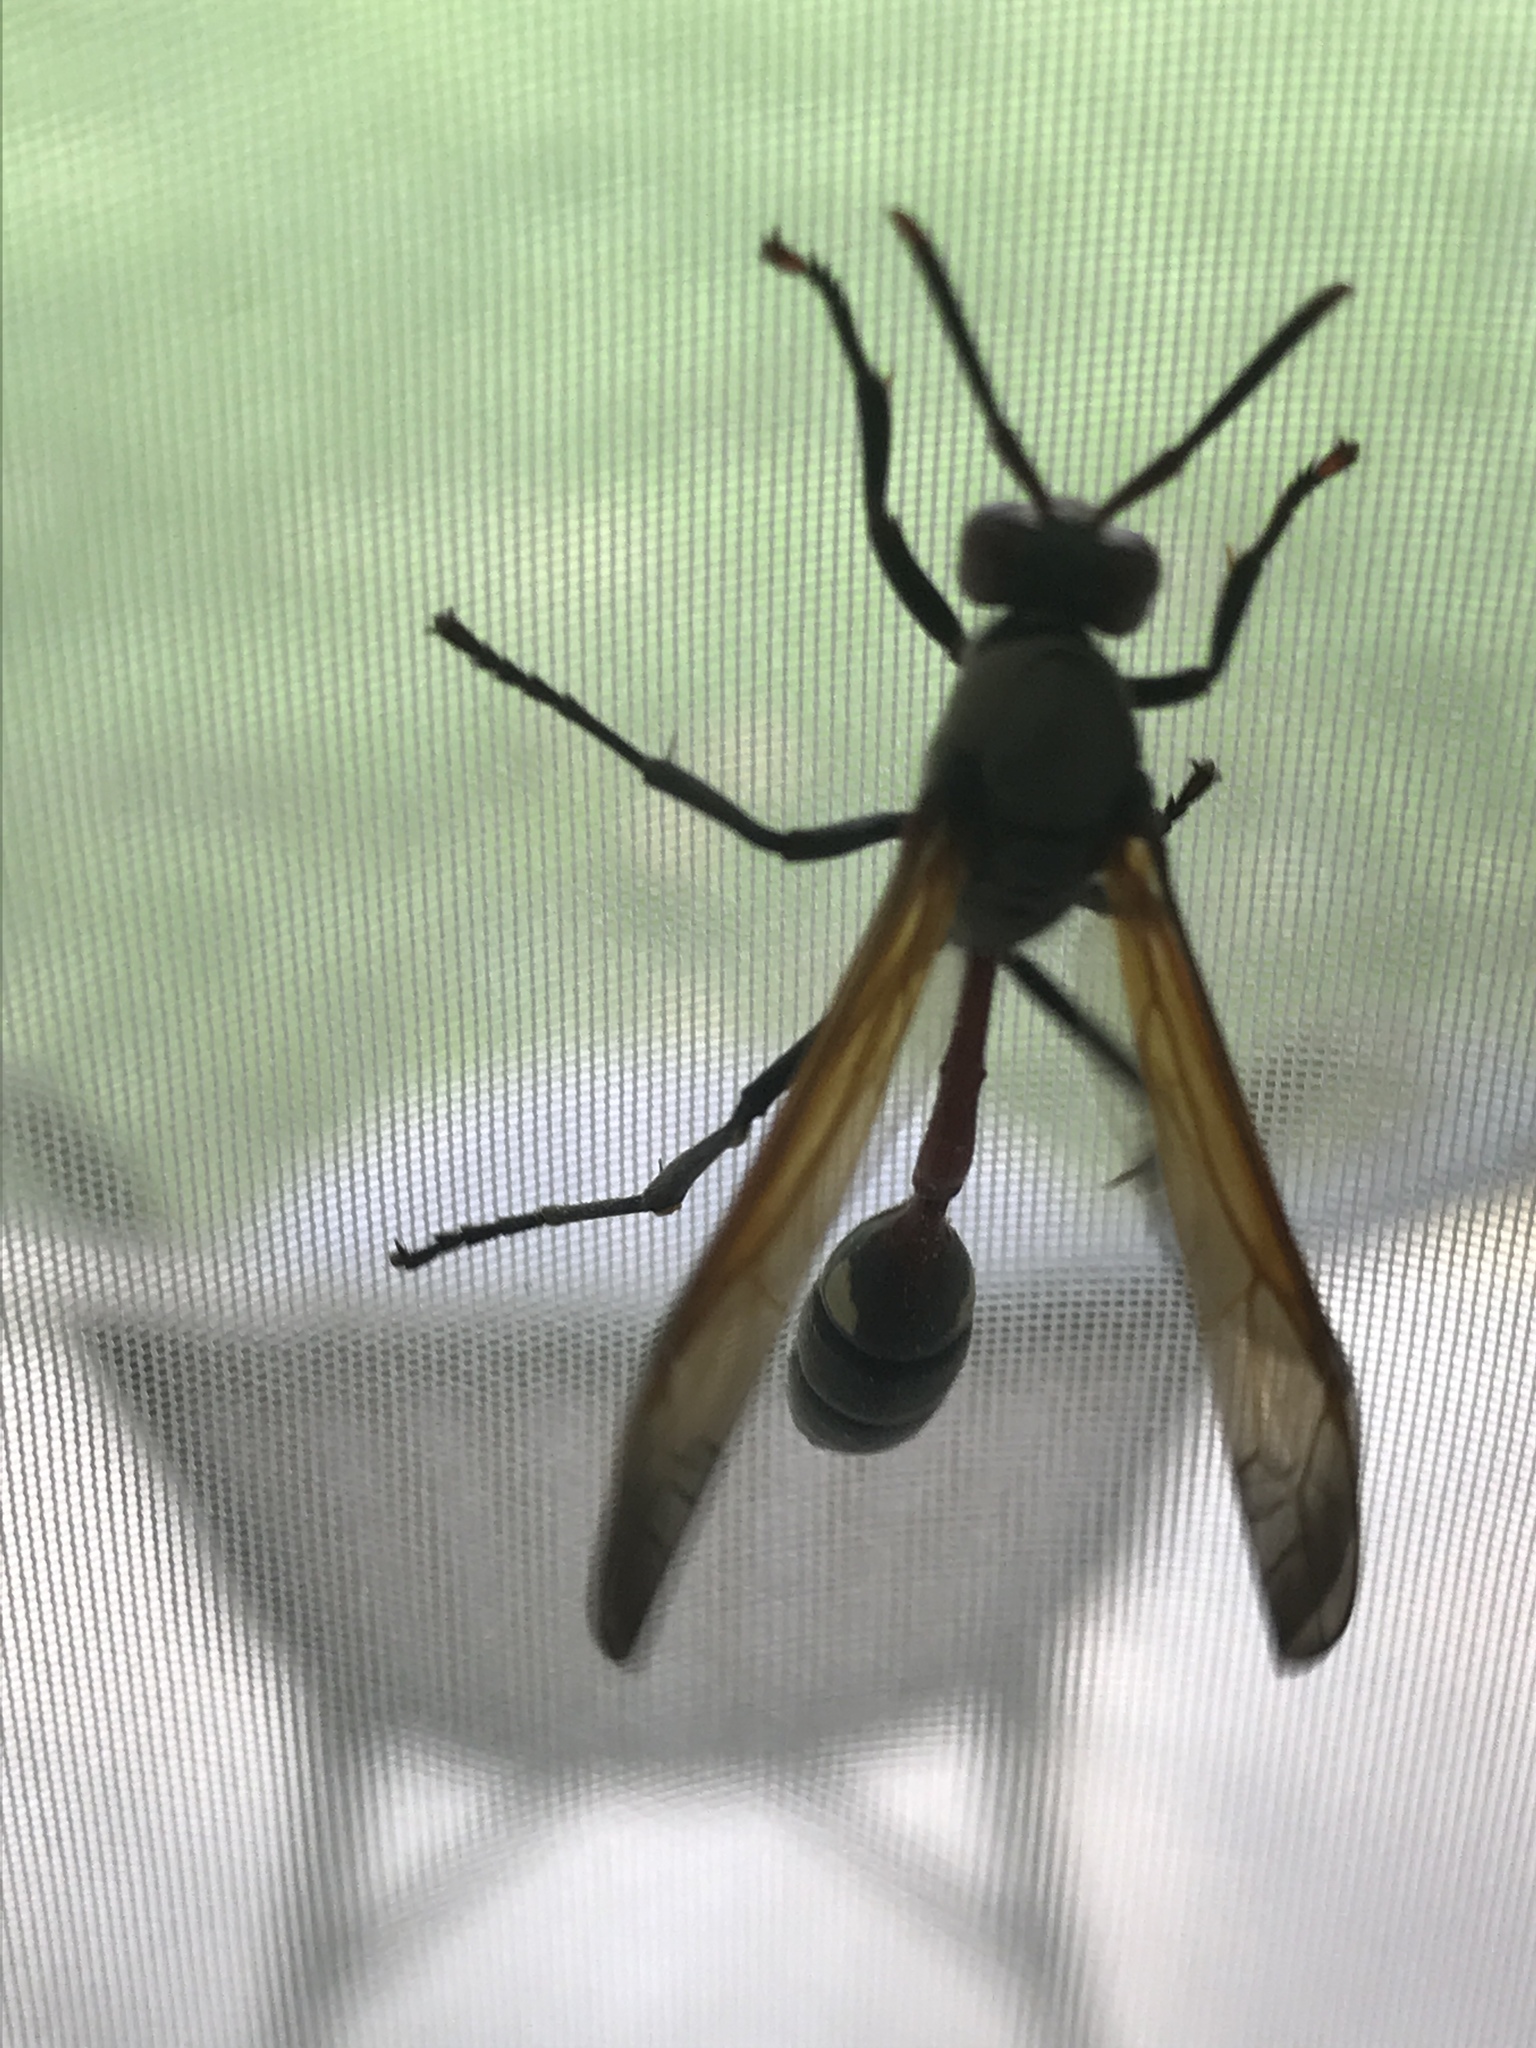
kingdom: Animalia
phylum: Arthropoda
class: Insecta
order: Hymenoptera
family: Eumenidae
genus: Belonogaster
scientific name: Belonogaster
